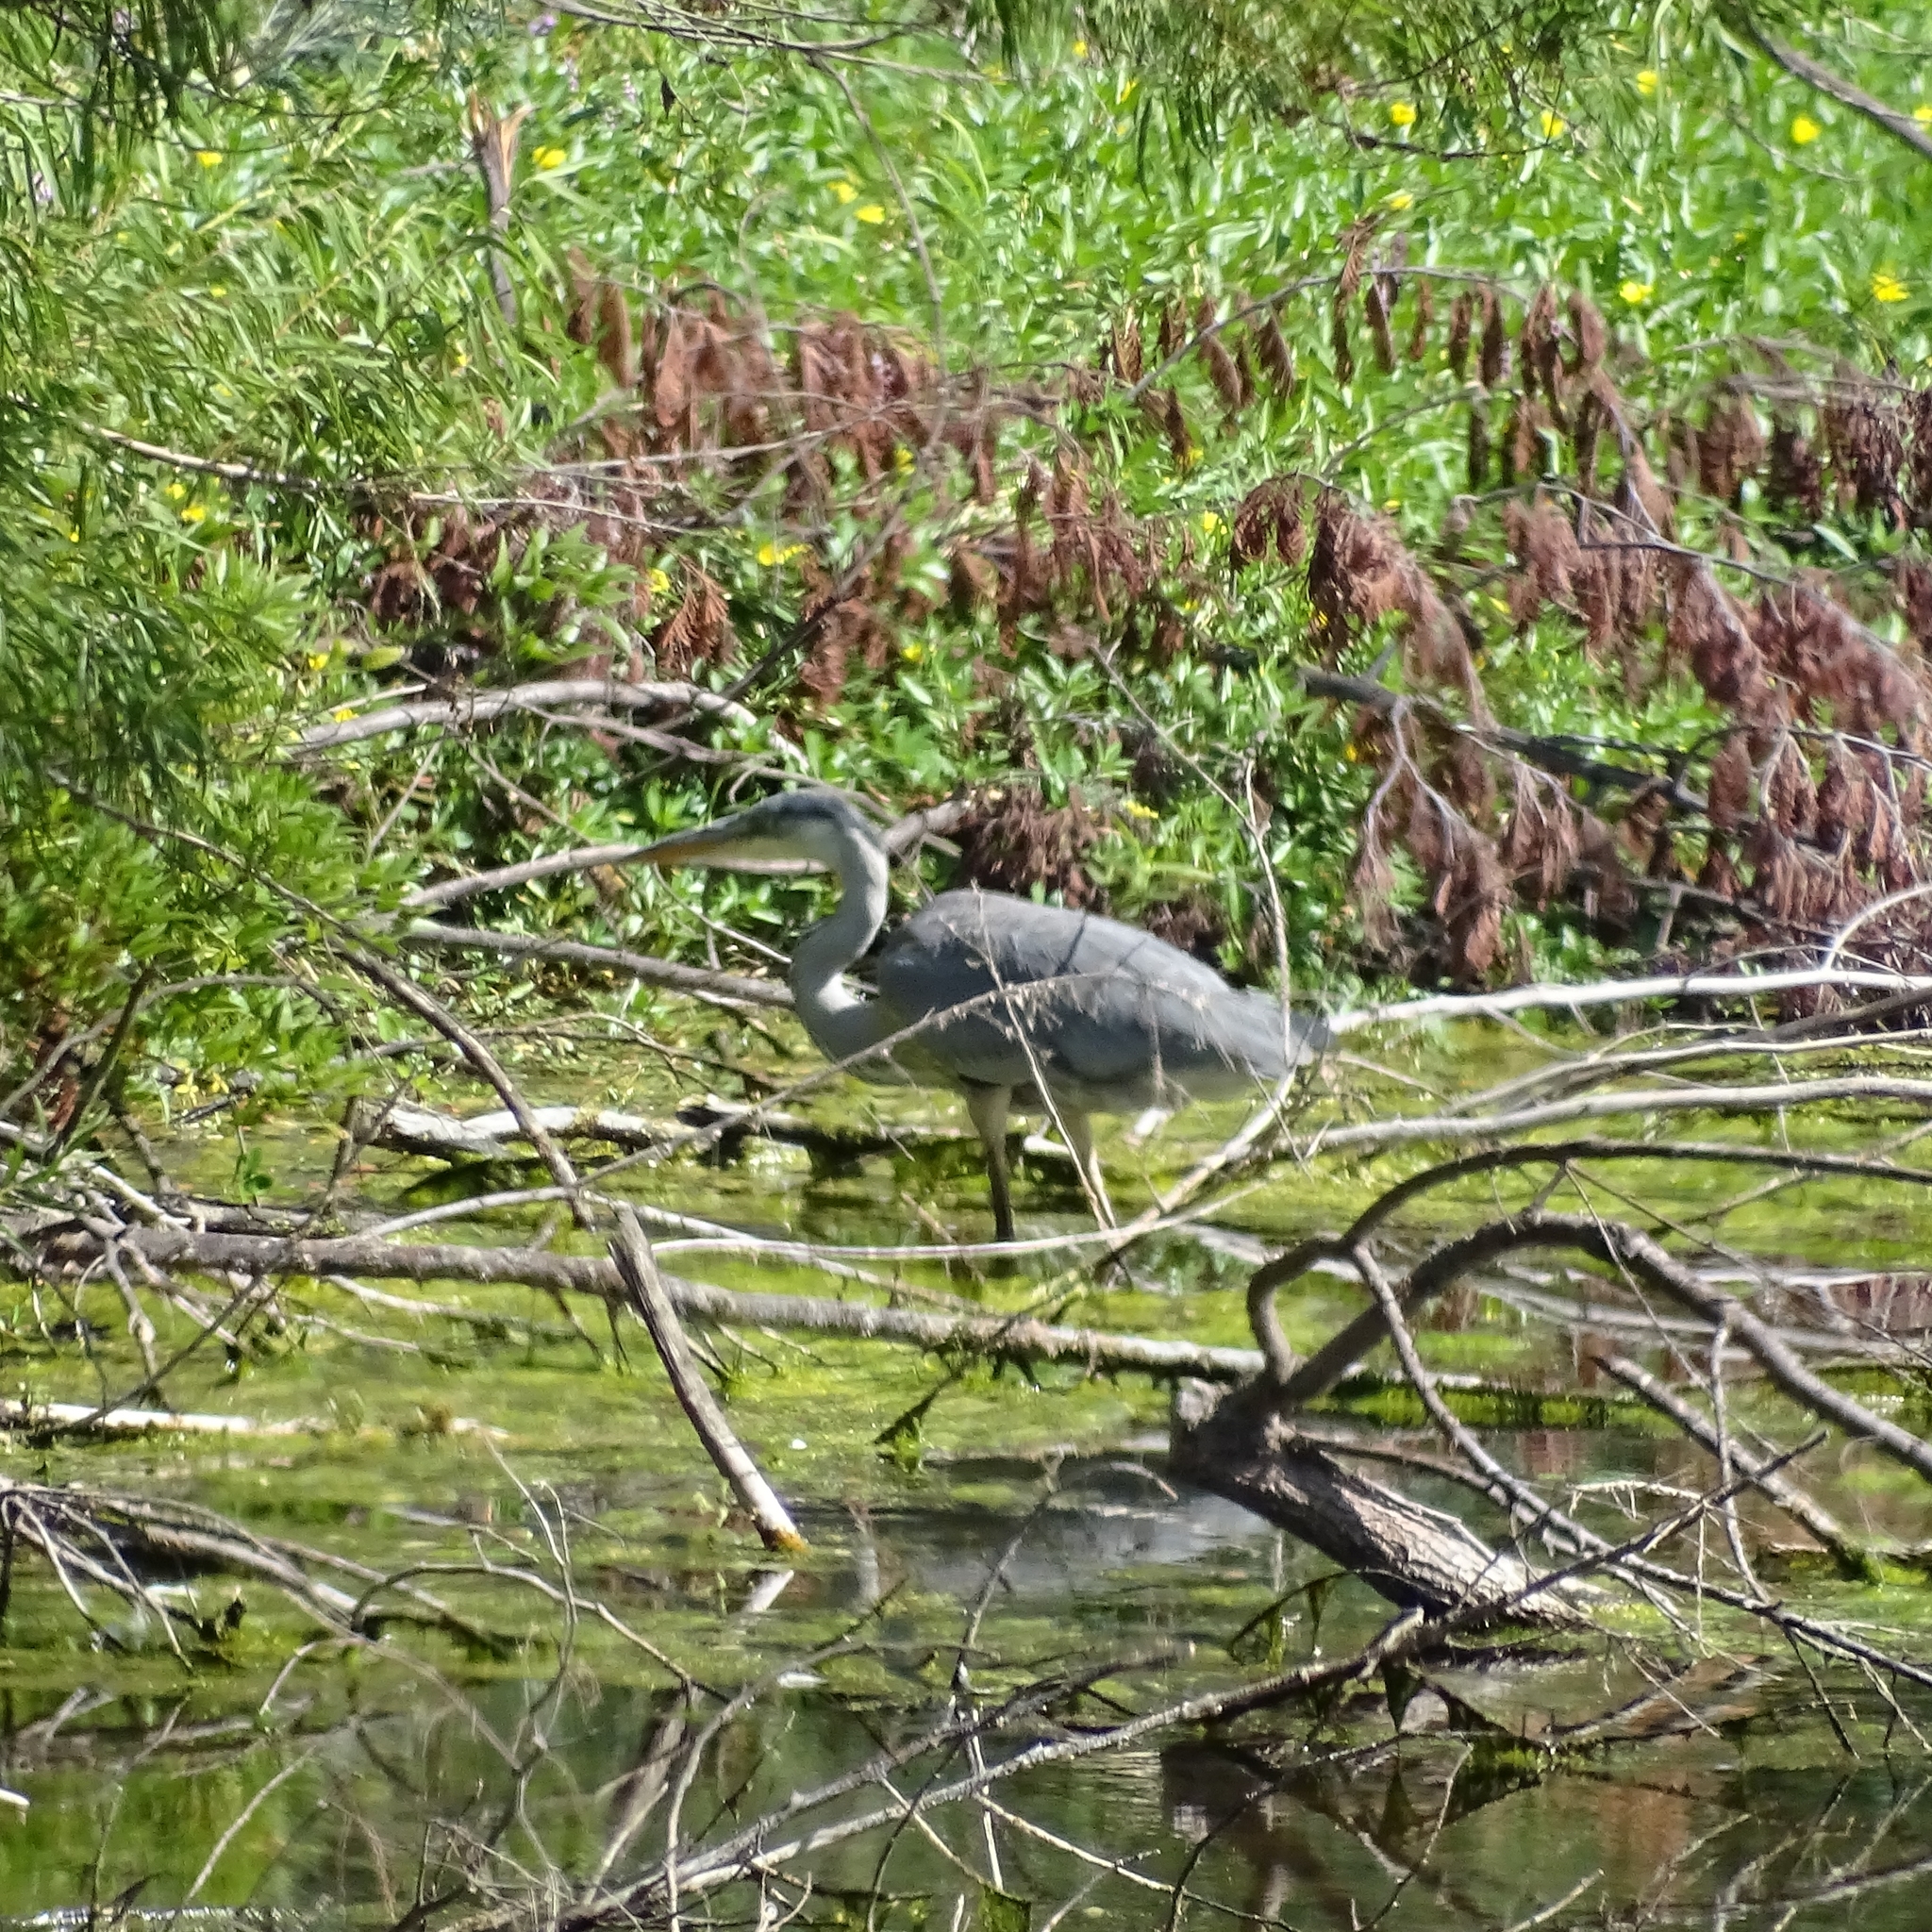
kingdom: Animalia
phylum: Chordata
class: Aves
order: Pelecaniformes
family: Ardeidae
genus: Ardea
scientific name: Ardea cocoi
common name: Cocoi heron
